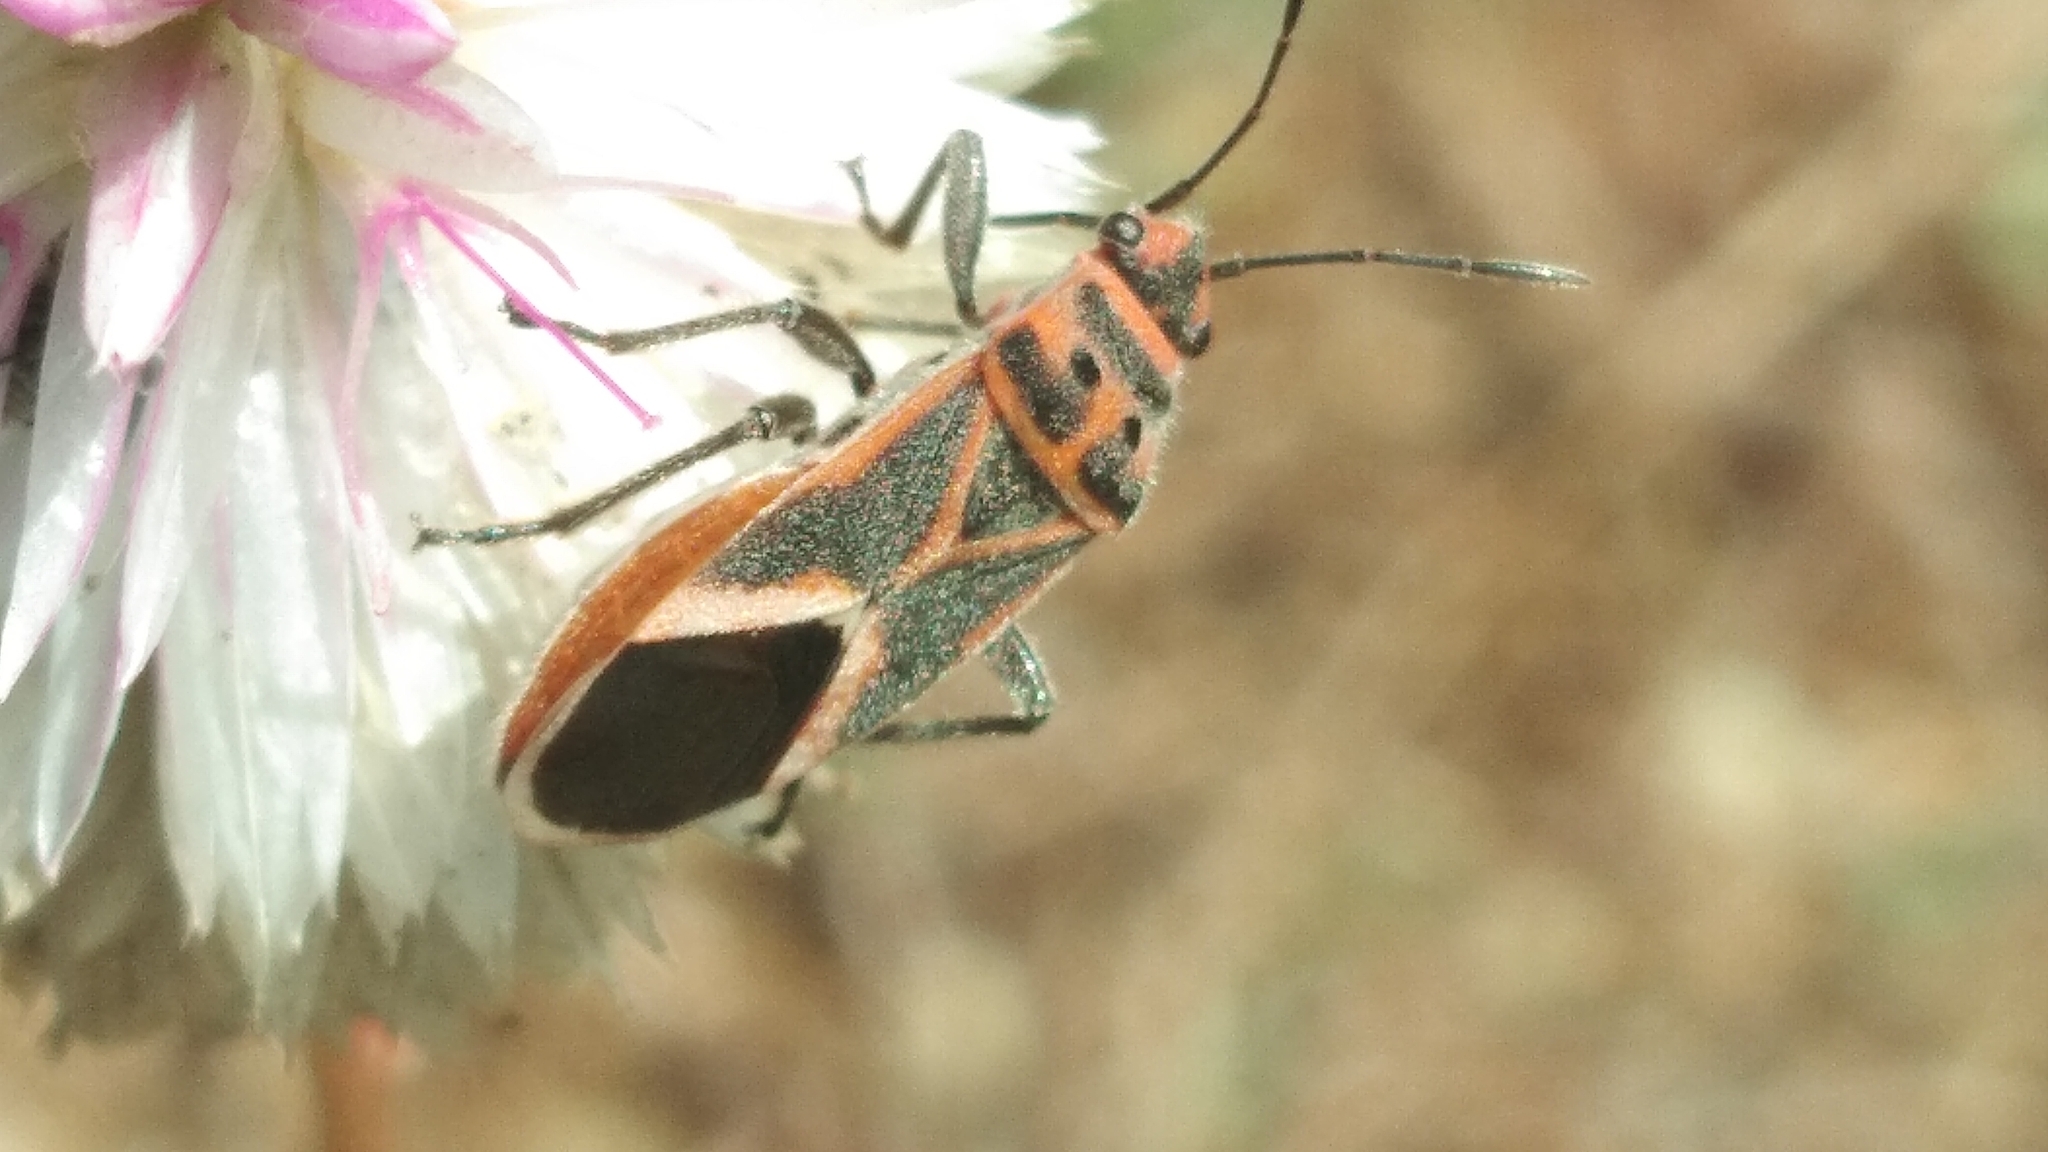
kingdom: Animalia
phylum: Arthropoda
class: Insecta
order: Hemiptera
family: Lygaeidae
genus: Graptostethus
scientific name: Graptostethus servus
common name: Lygaeid bug
